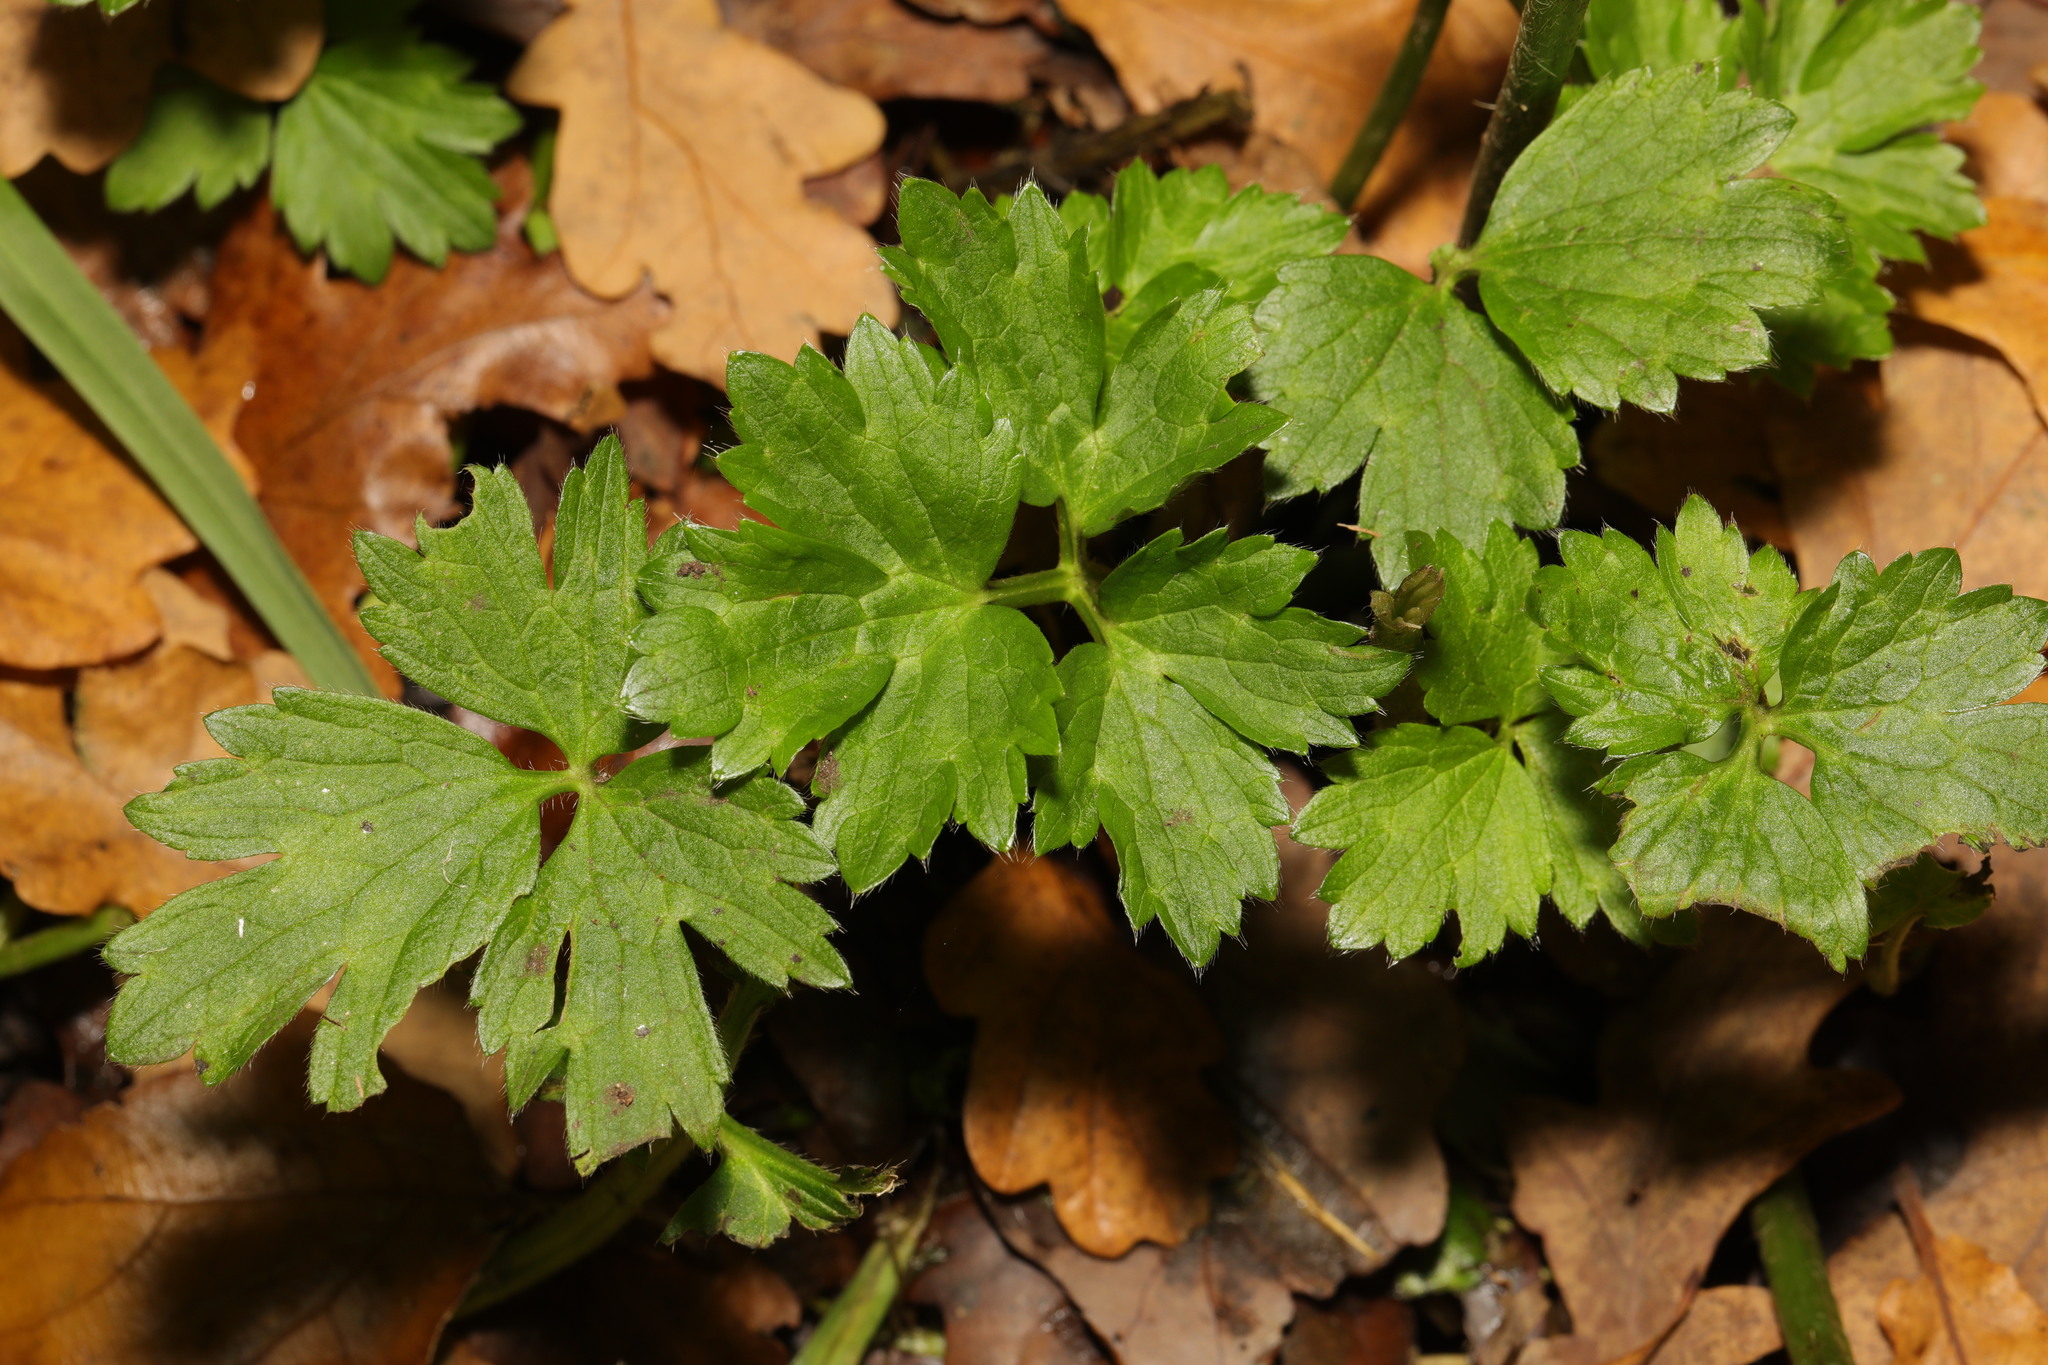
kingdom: Plantae
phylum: Tracheophyta
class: Magnoliopsida
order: Ranunculales
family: Ranunculaceae
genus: Ranunculus
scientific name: Ranunculus repens
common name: Creeping buttercup
